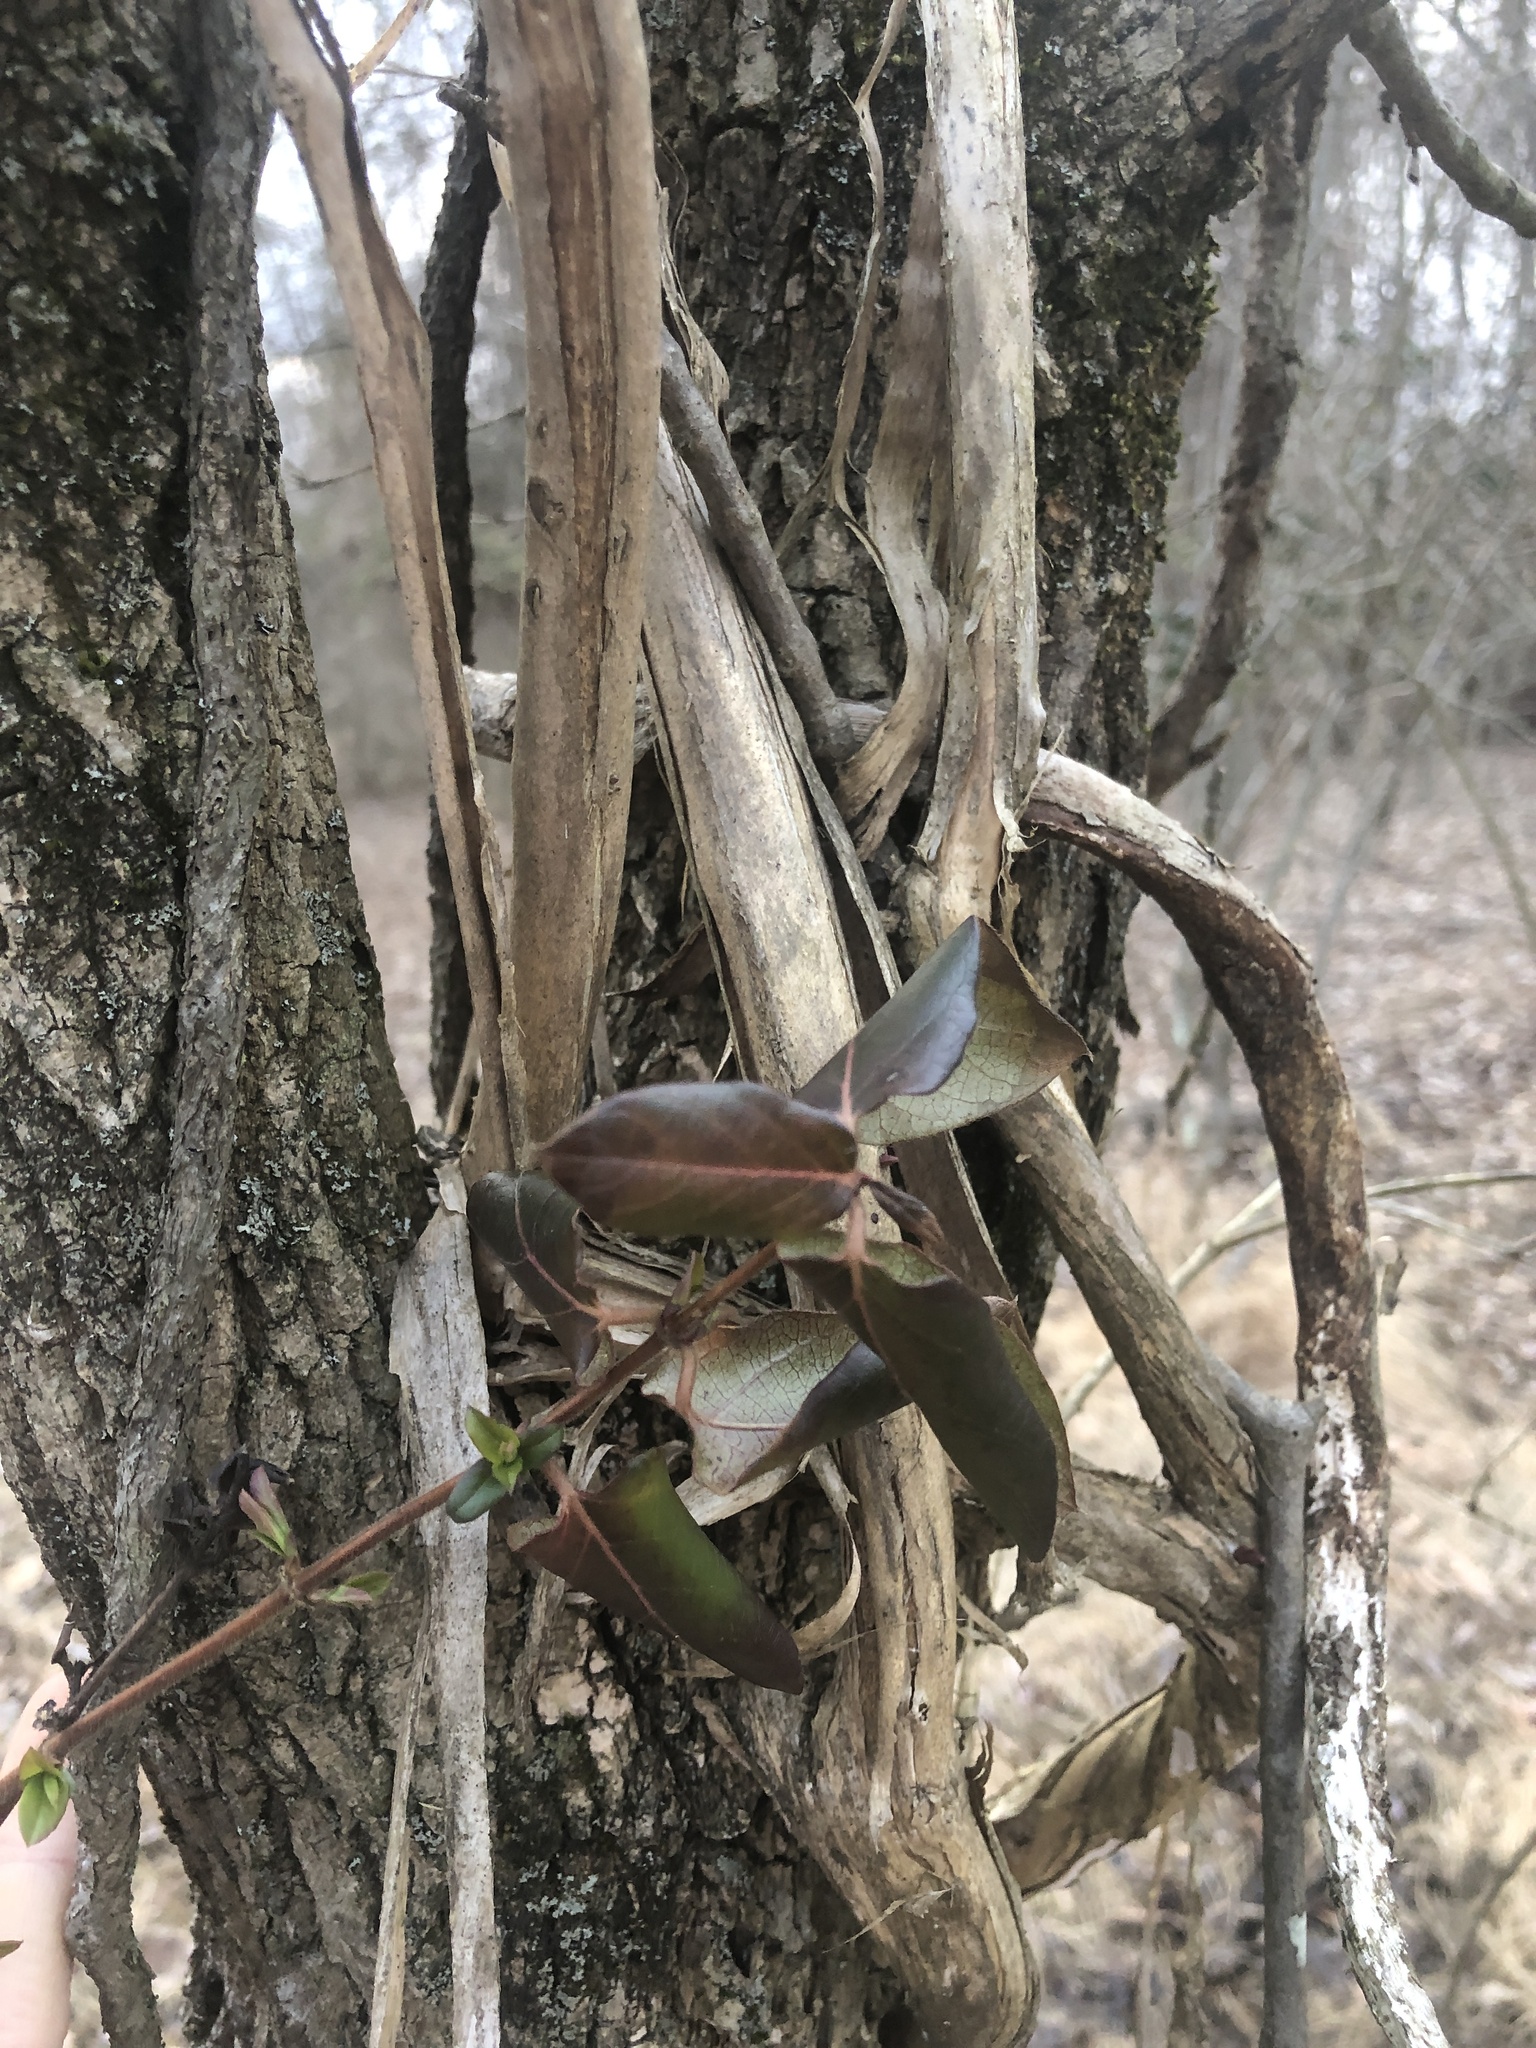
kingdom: Plantae
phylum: Tracheophyta
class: Magnoliopsida
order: Dipsacales
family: Caprifoliaceae
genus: Lonicera
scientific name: Lonicera japonica
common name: Japanese honeysuckle
